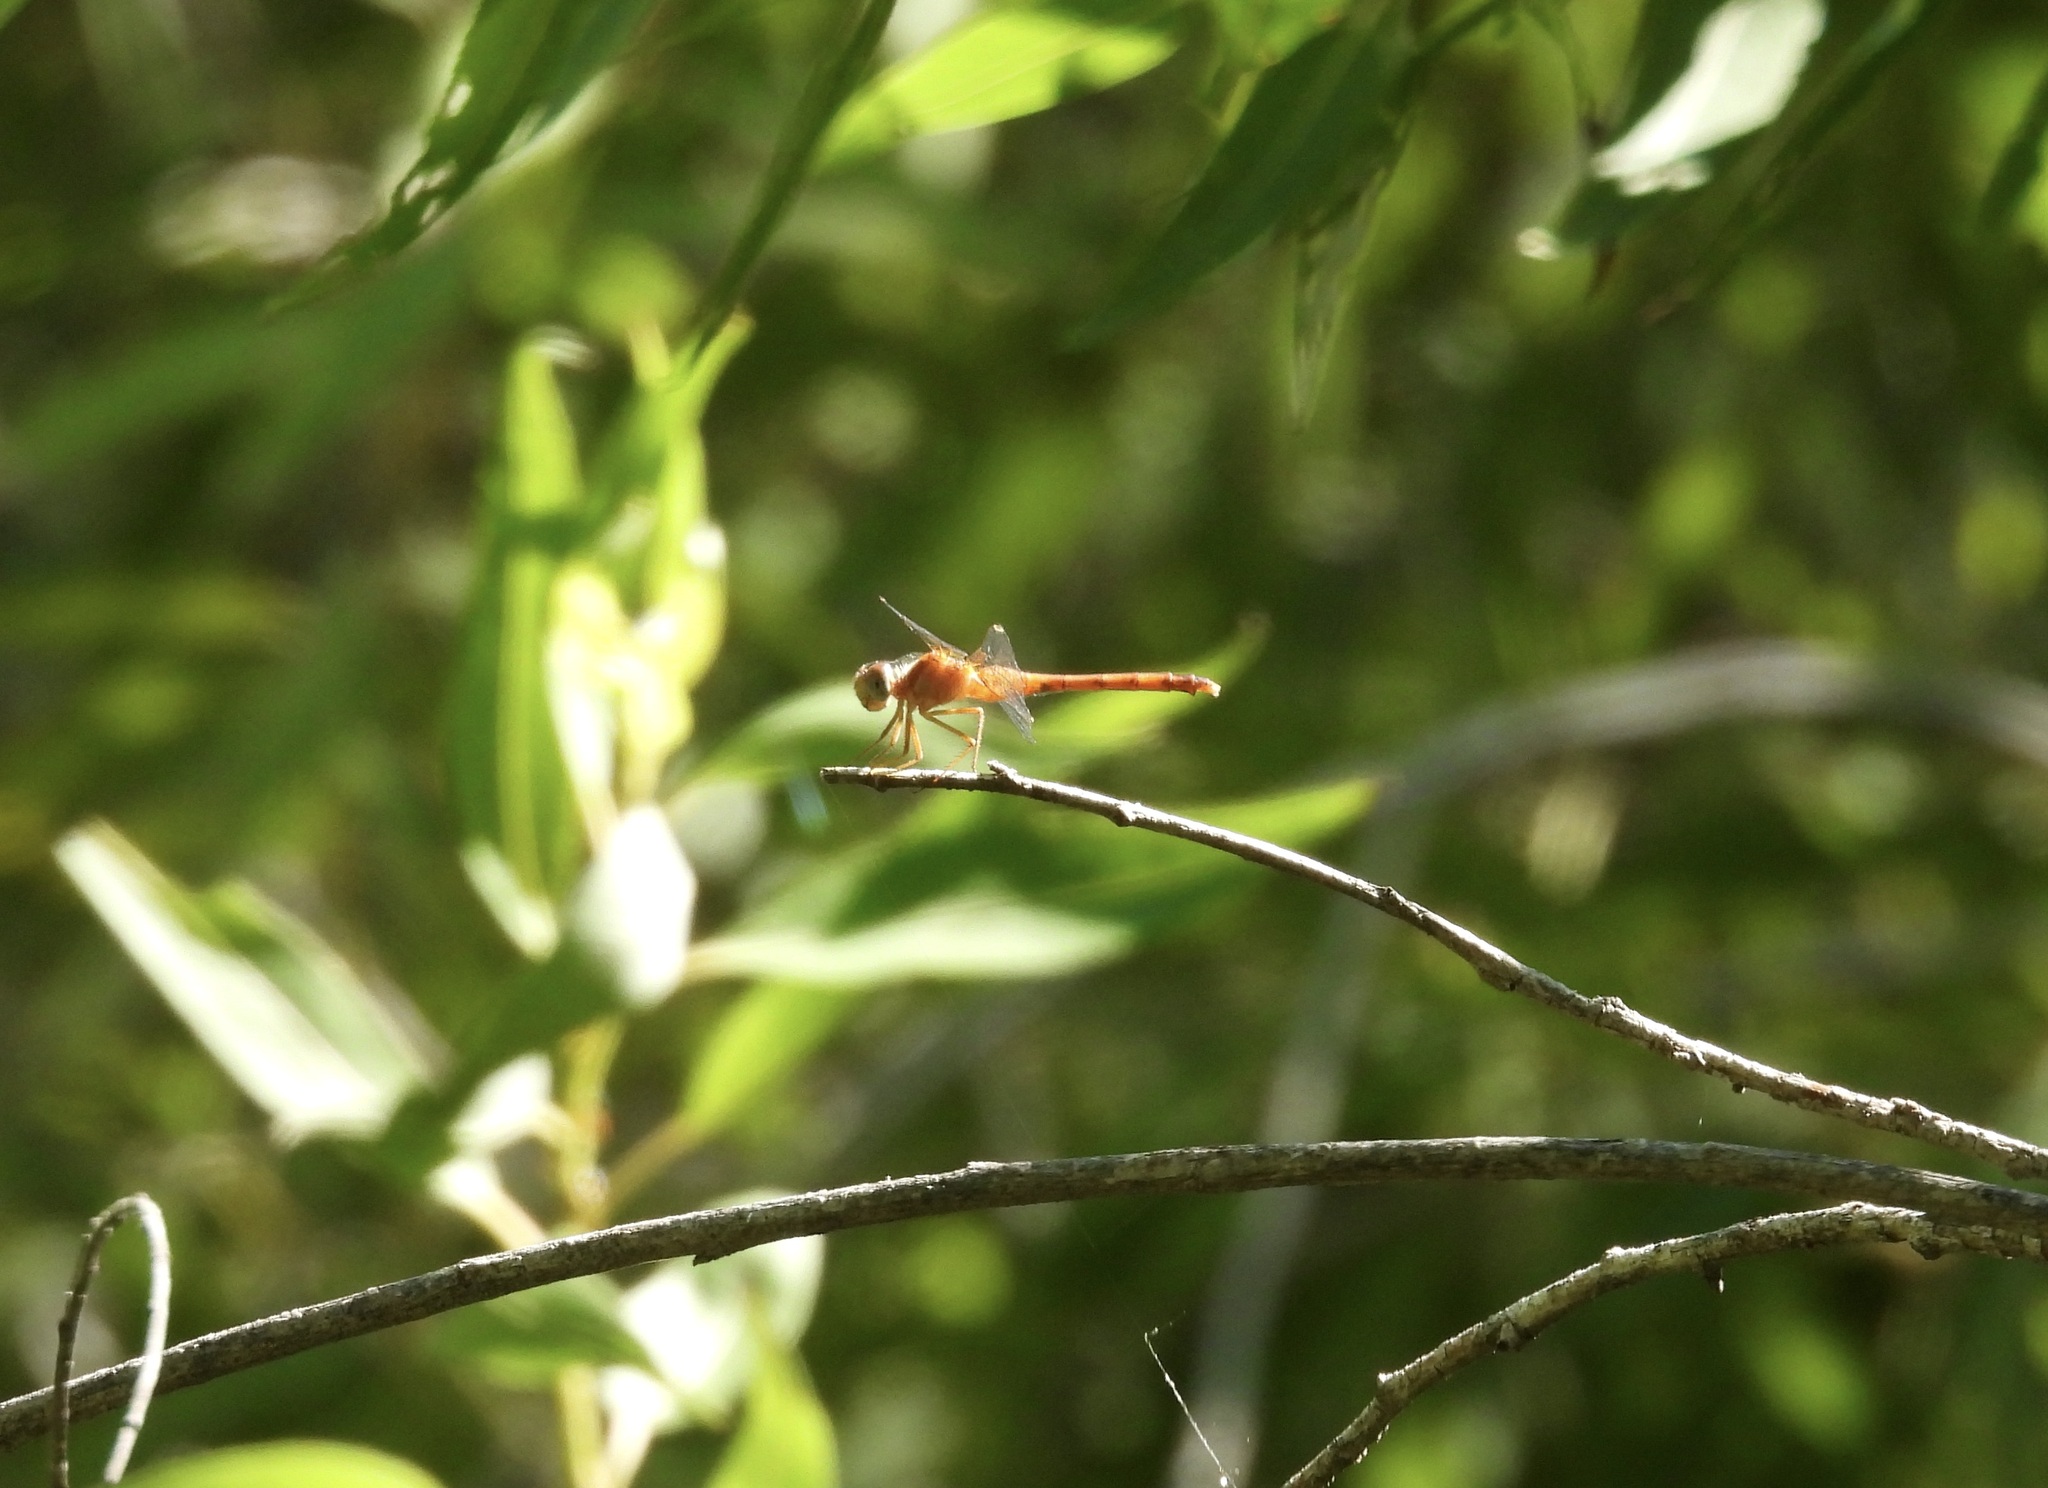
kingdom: Animalia
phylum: Arthropoda
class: Insecta
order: Odonata
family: Libellulidae
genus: Sympetrum
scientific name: Sympetrum vicinum
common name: Autumn meadowhawk
